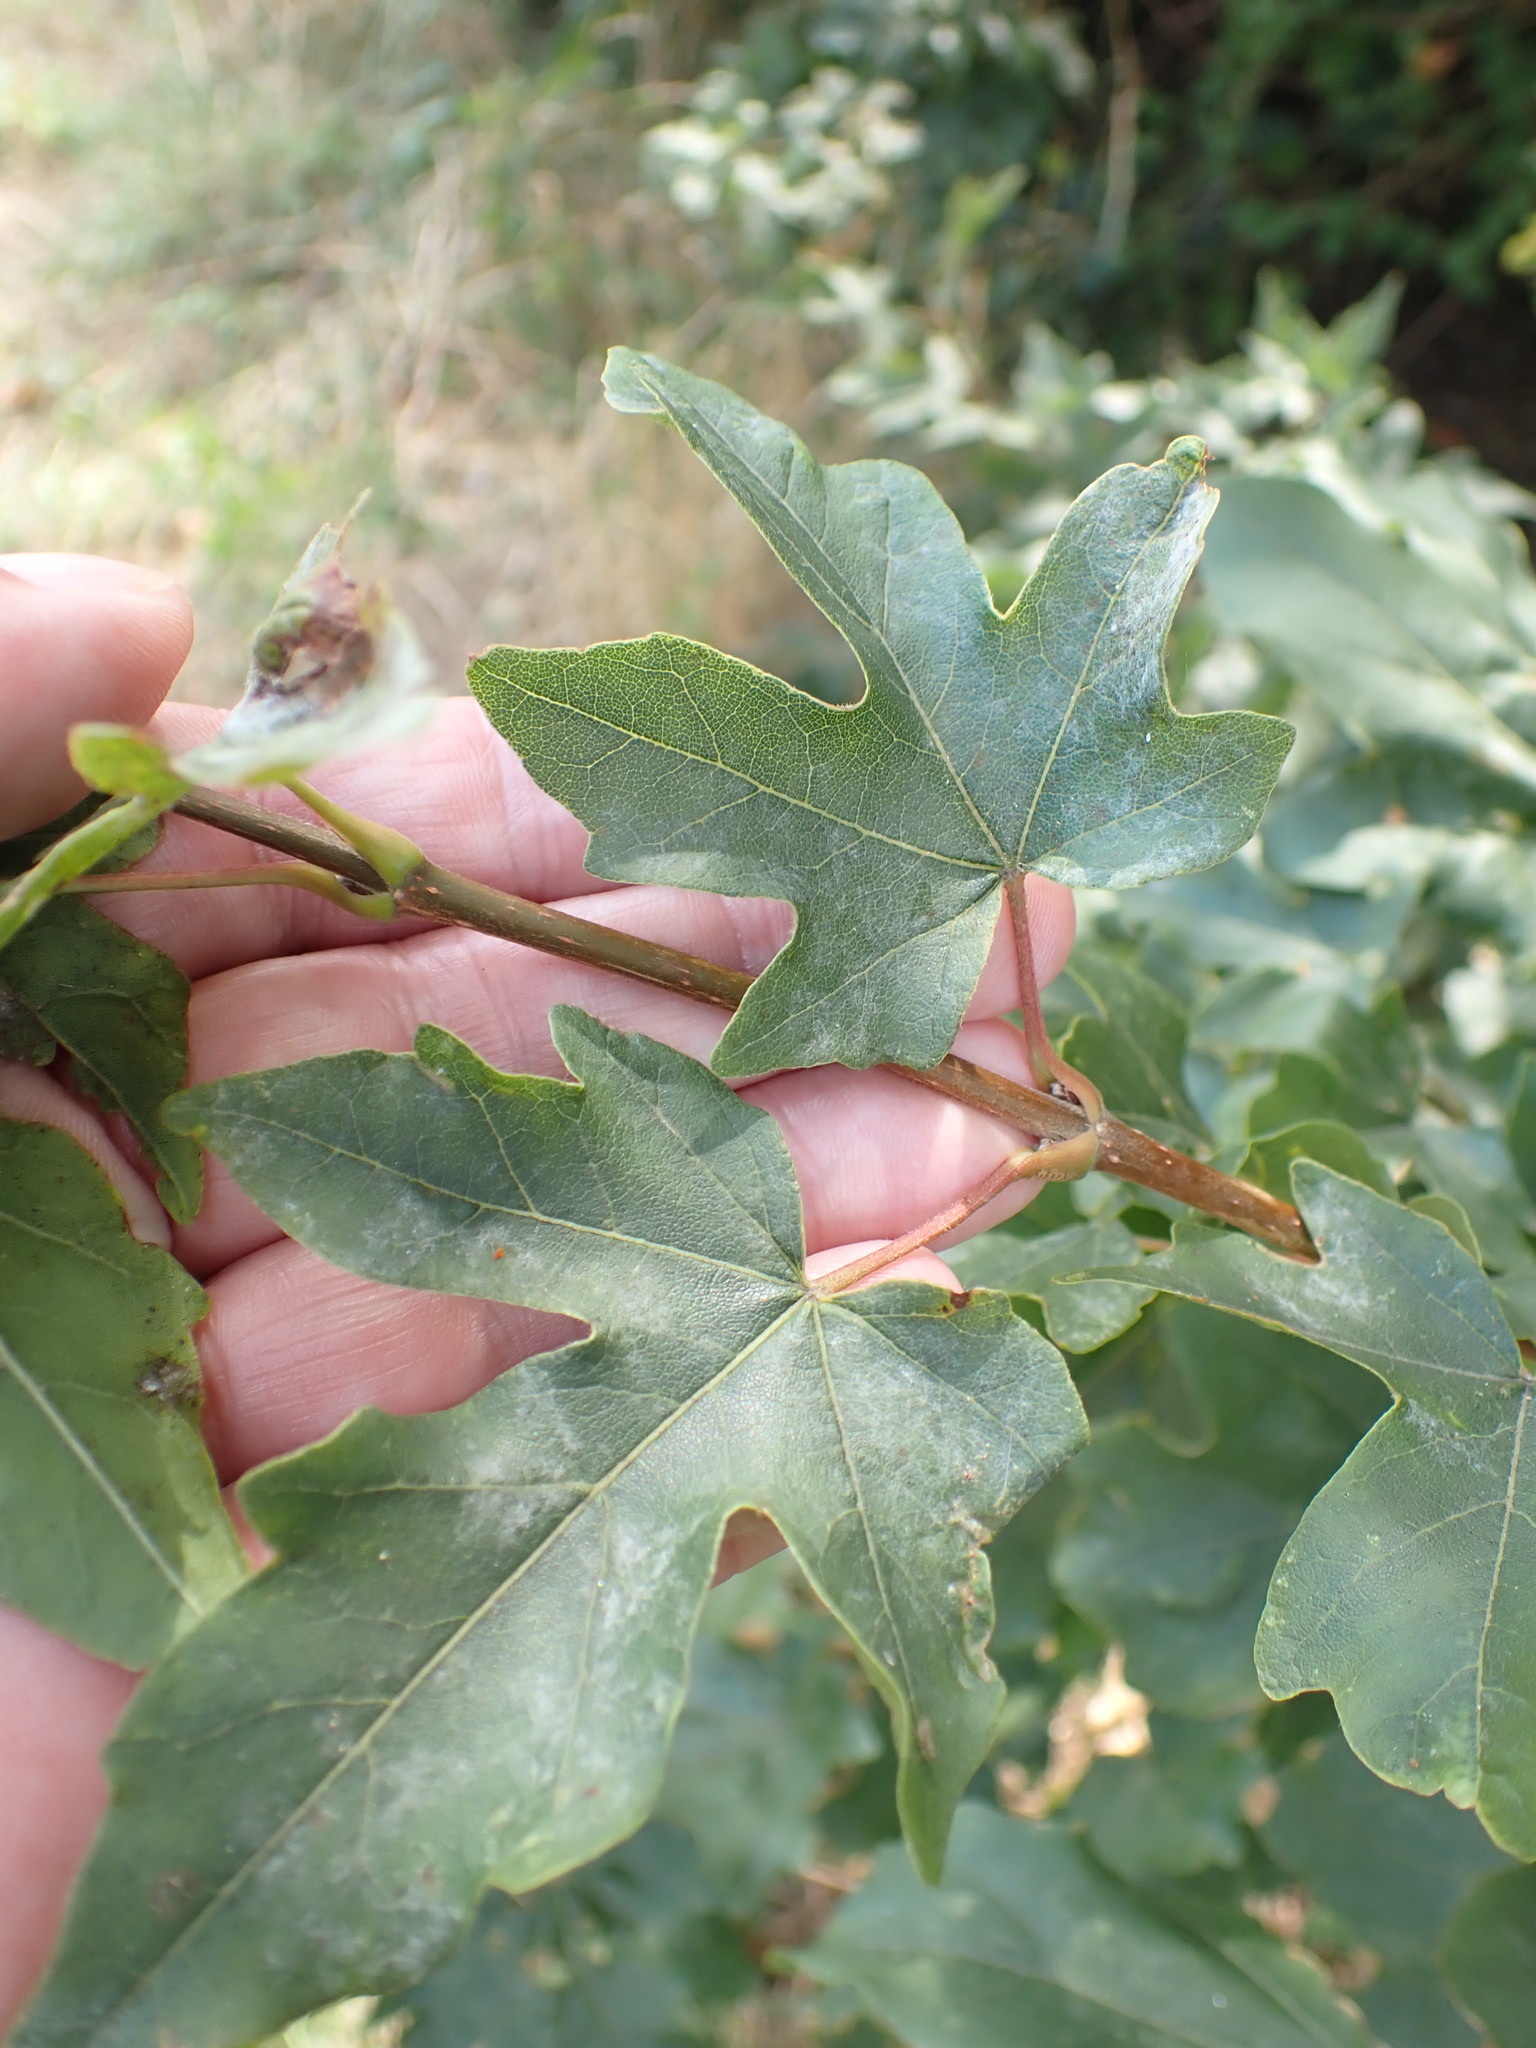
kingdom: Plantae
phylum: Tracheophyta
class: Magnoliopsida
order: Sapindales
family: Sapindaceae
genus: Acer
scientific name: Acer campestre
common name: Field maple
